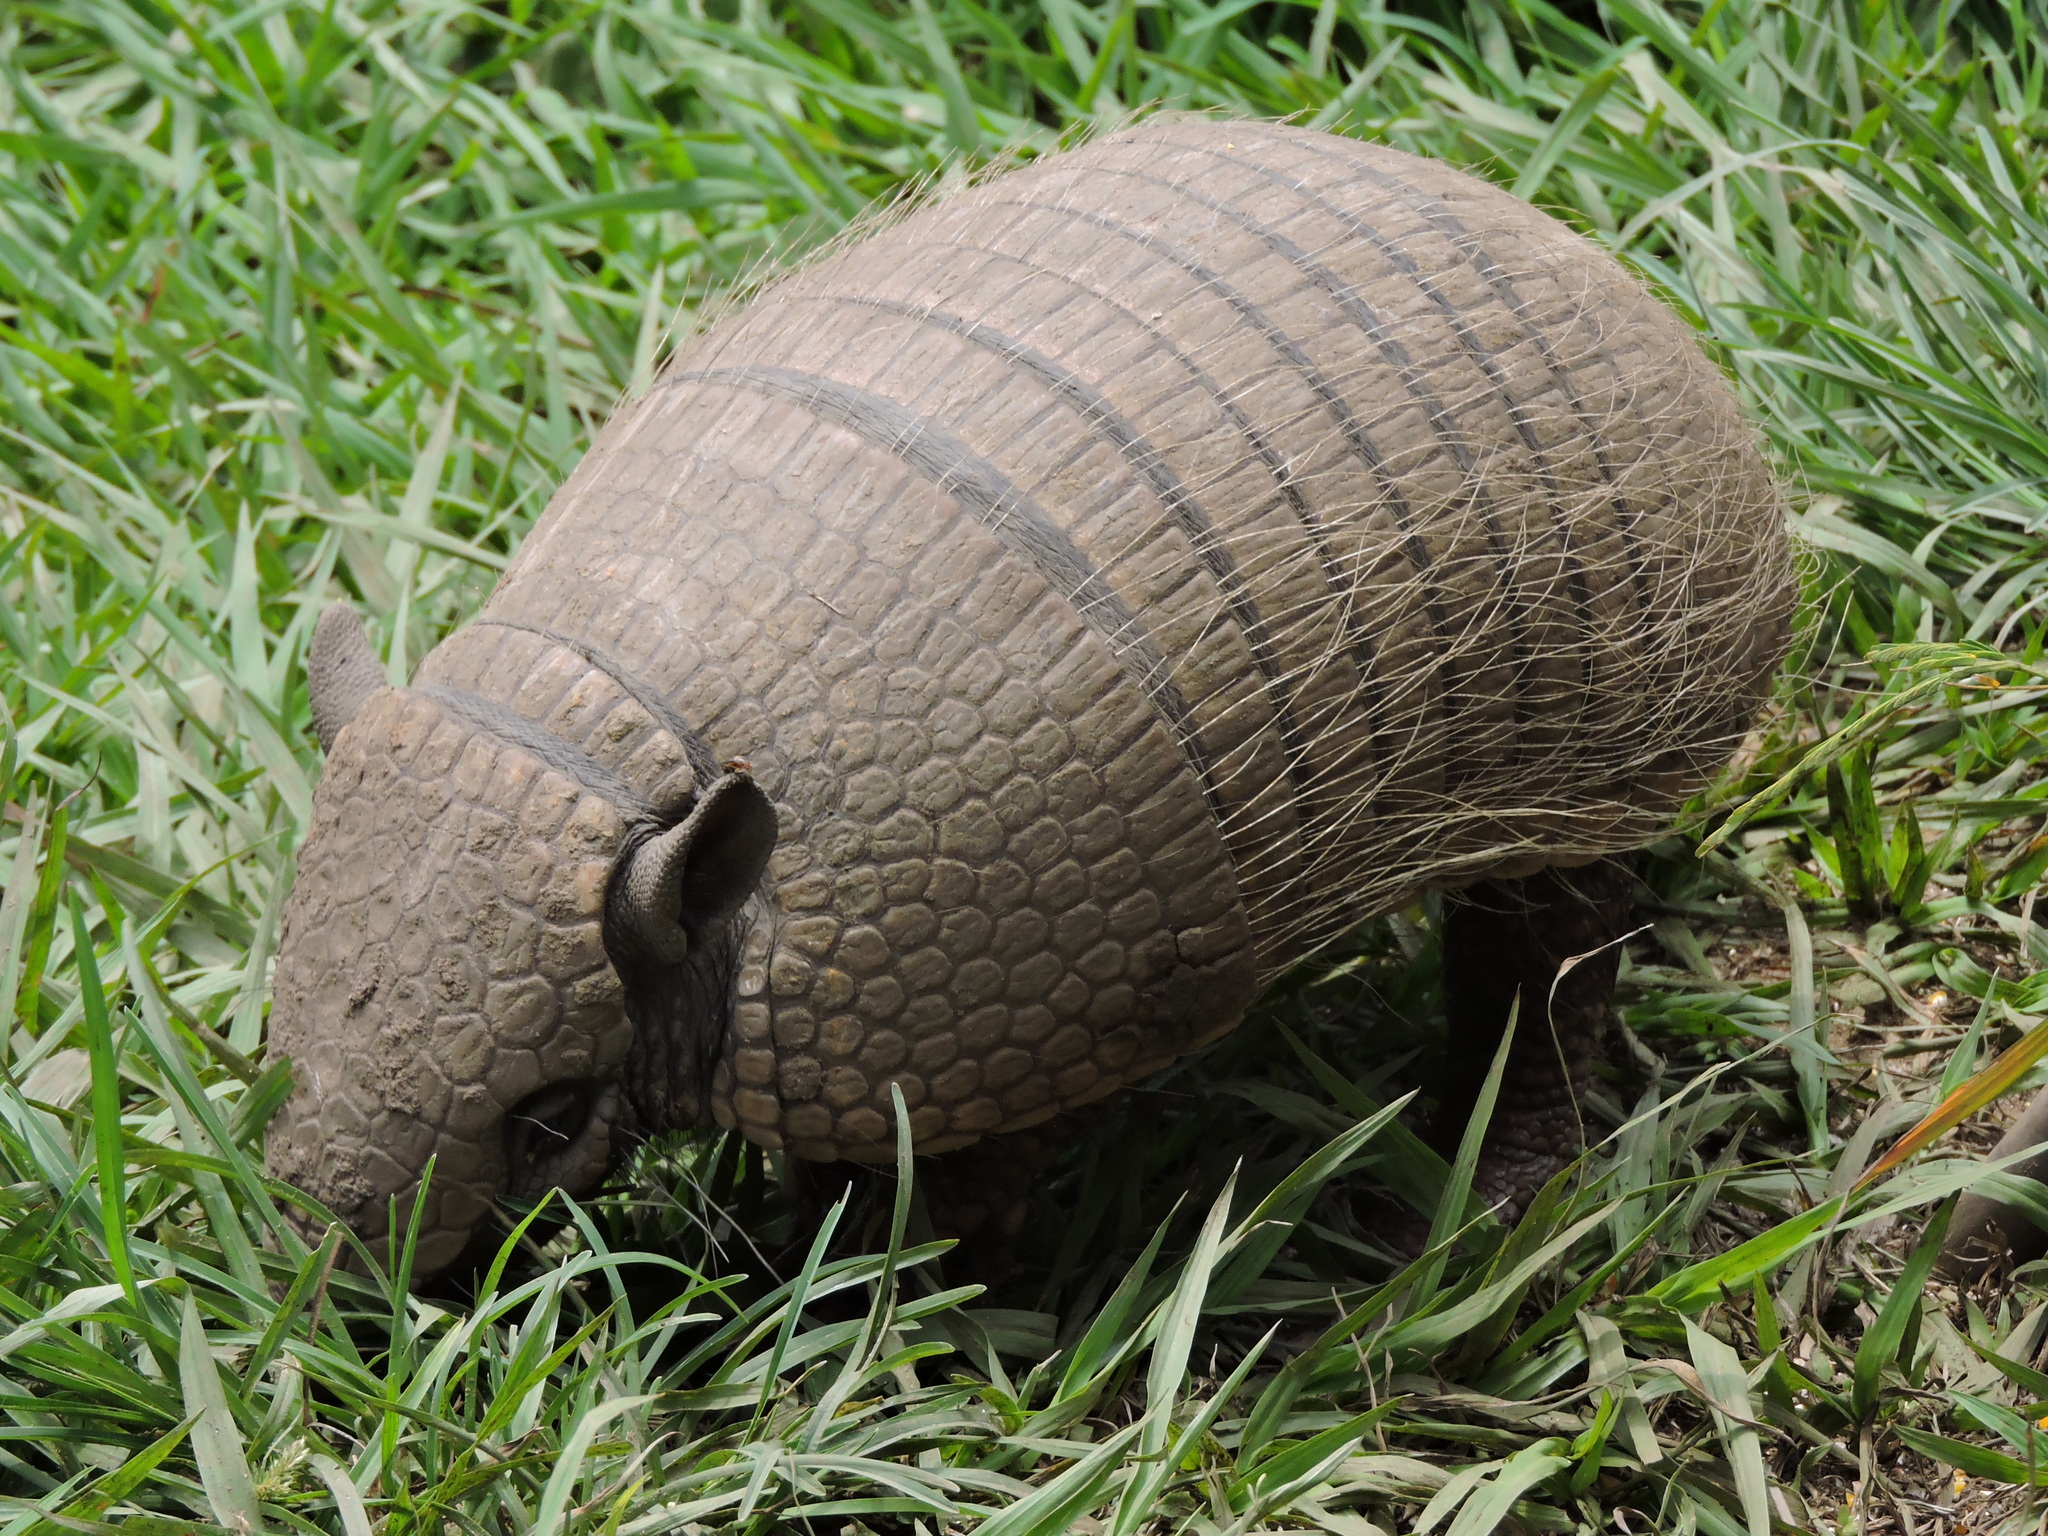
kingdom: Animalia
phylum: Chordata
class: Mammalia
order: Cingulata
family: Dasypodidae
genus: Euphractus
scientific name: Euphractus sexcinctus
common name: Six-banded armadillo
